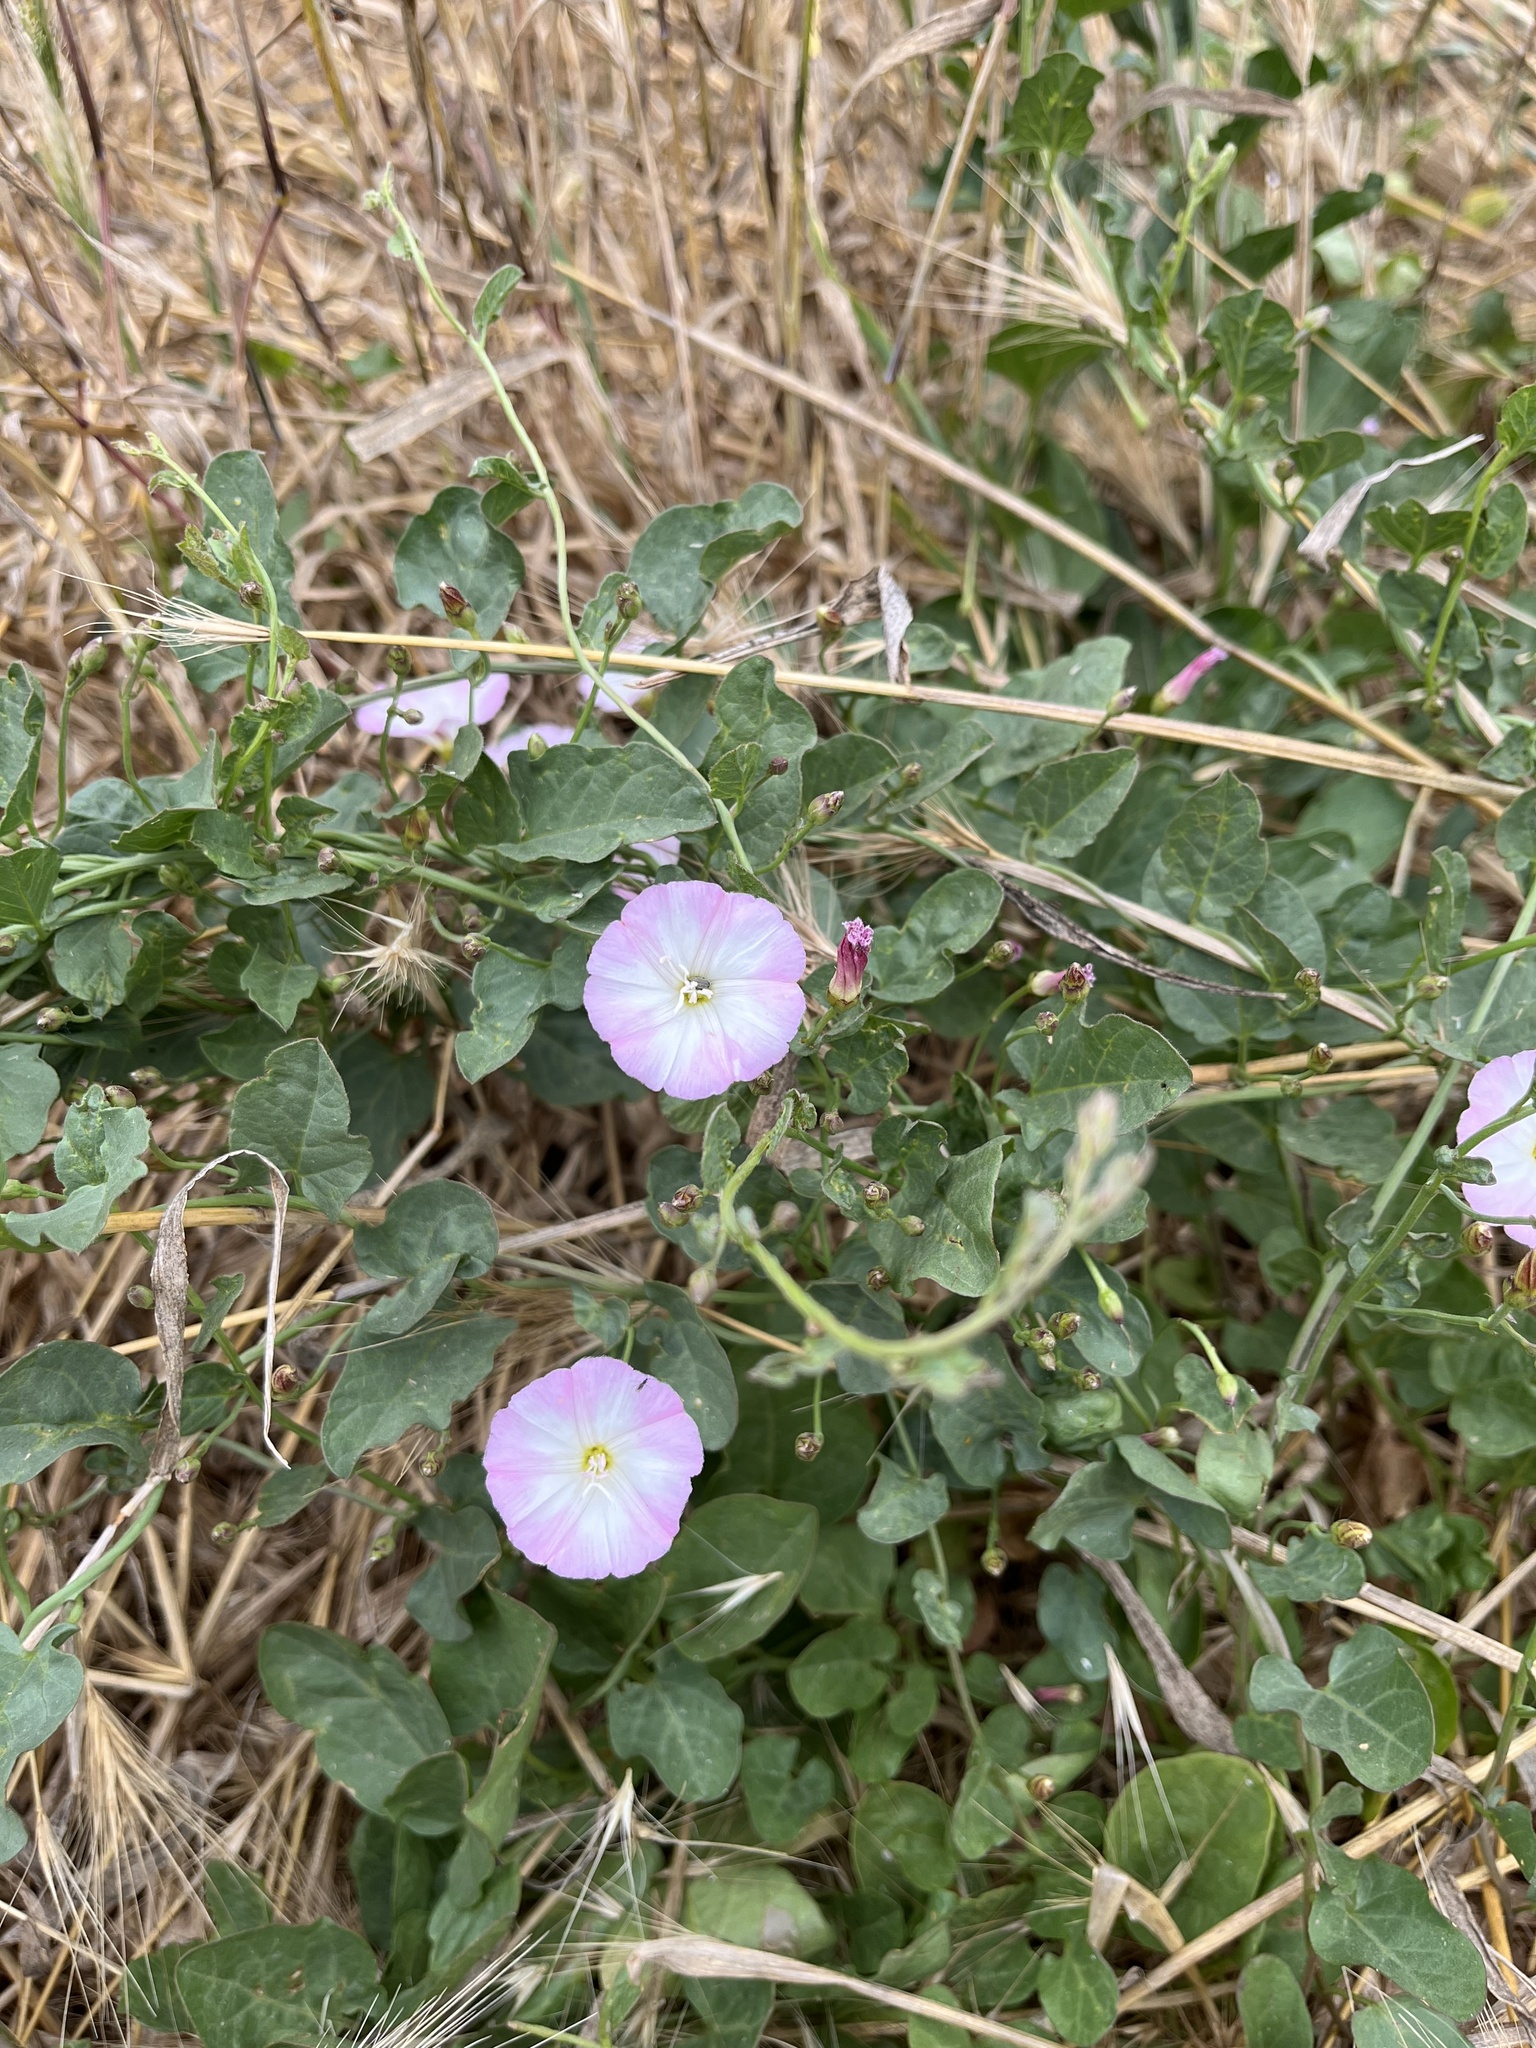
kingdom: Plantae
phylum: Tracheophyta
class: Magnoliopsida
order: Solanales
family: Convolvulaceae
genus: Convolvulus
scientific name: Convolvulus arvensis
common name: Field bindweed
